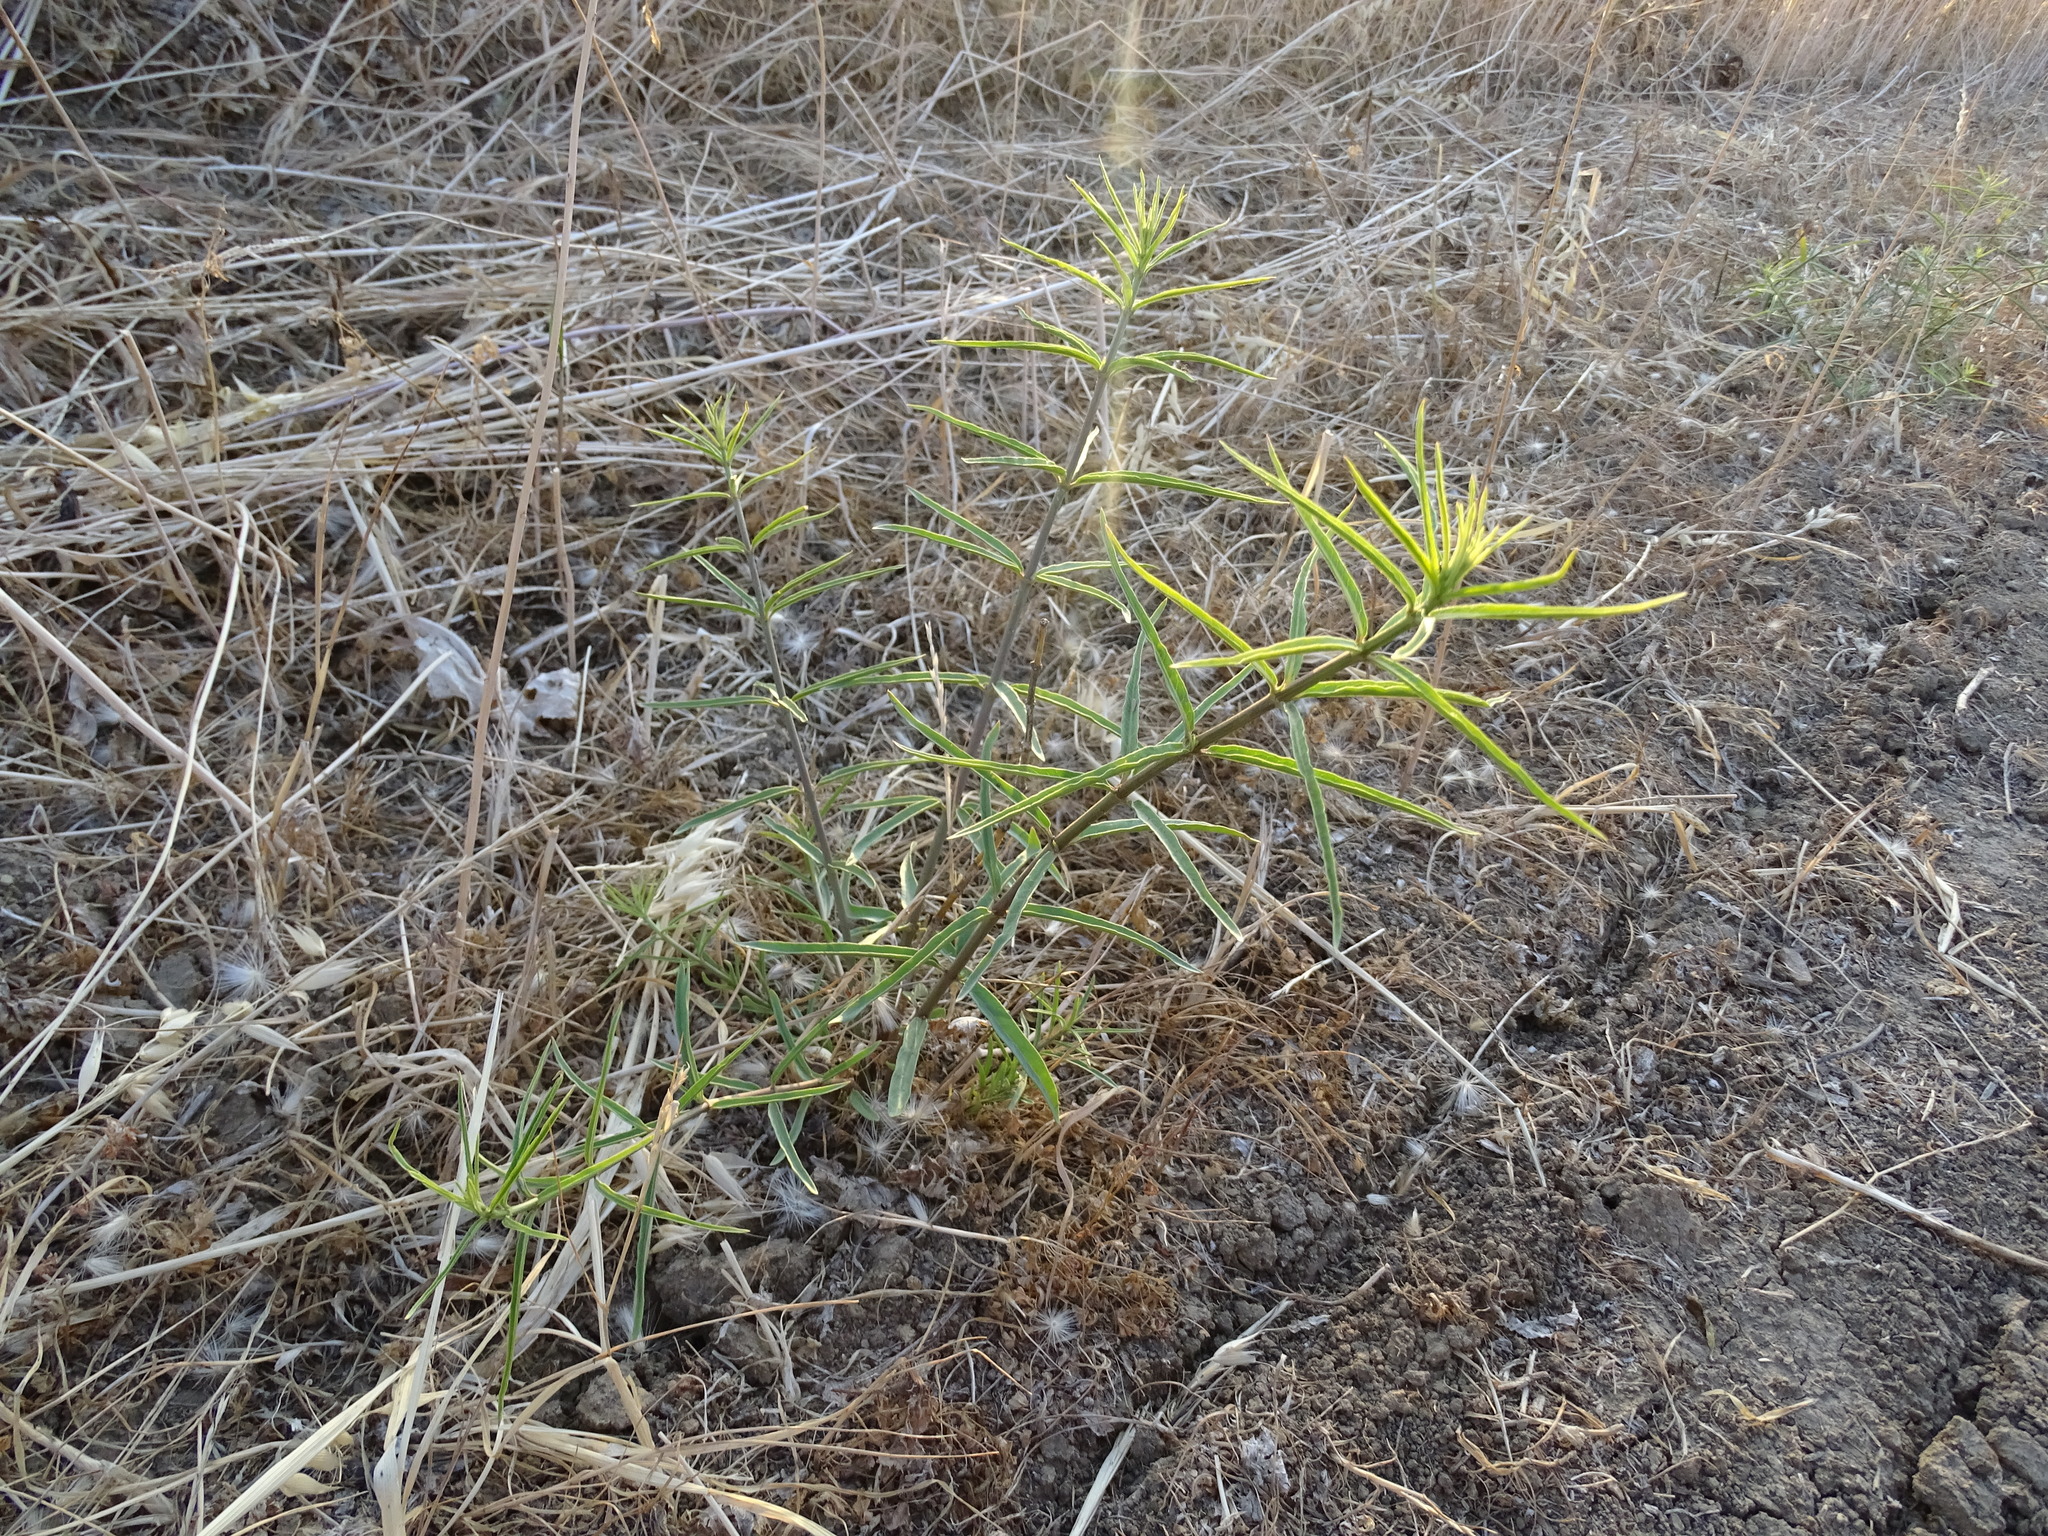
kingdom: Plantae
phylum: Tracheophyta
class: Magnoliopsida
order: Gentianales
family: Apocynaceae
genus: Asclepias
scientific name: Asclepias fascicularis
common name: Mexican milkweed
